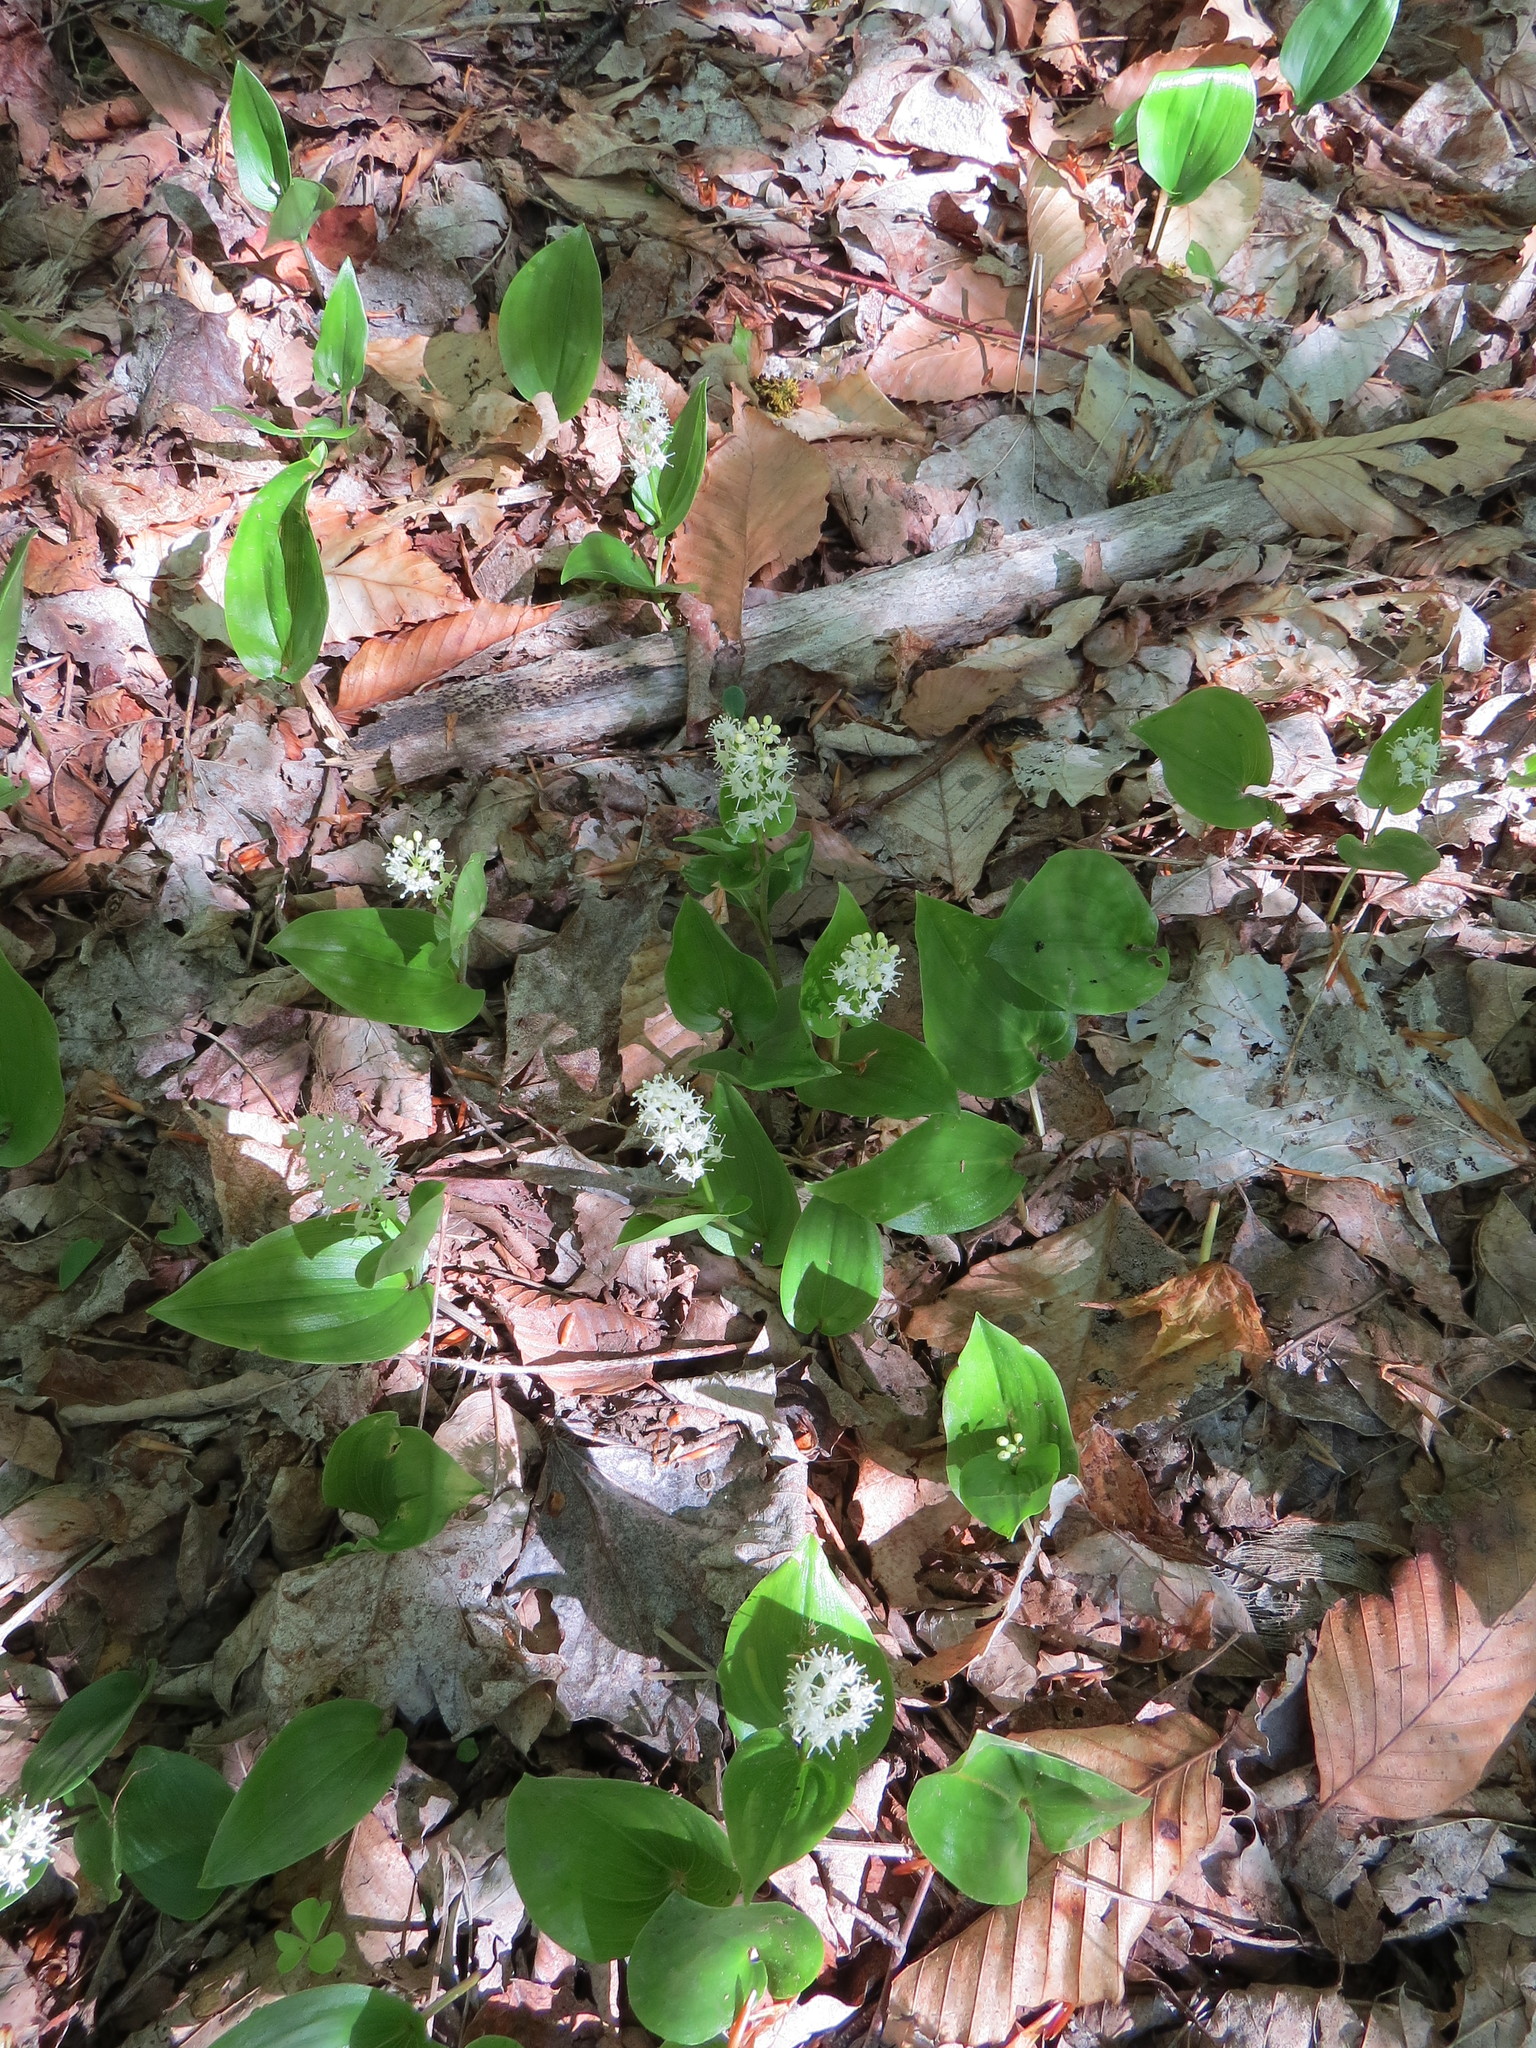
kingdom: Plantae
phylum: Tracheophyta
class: Liliopsida
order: Asparagales
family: Asparagaceae
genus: Maianthemum
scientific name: Maianthemum canadense
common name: False lily-of-the-valley
